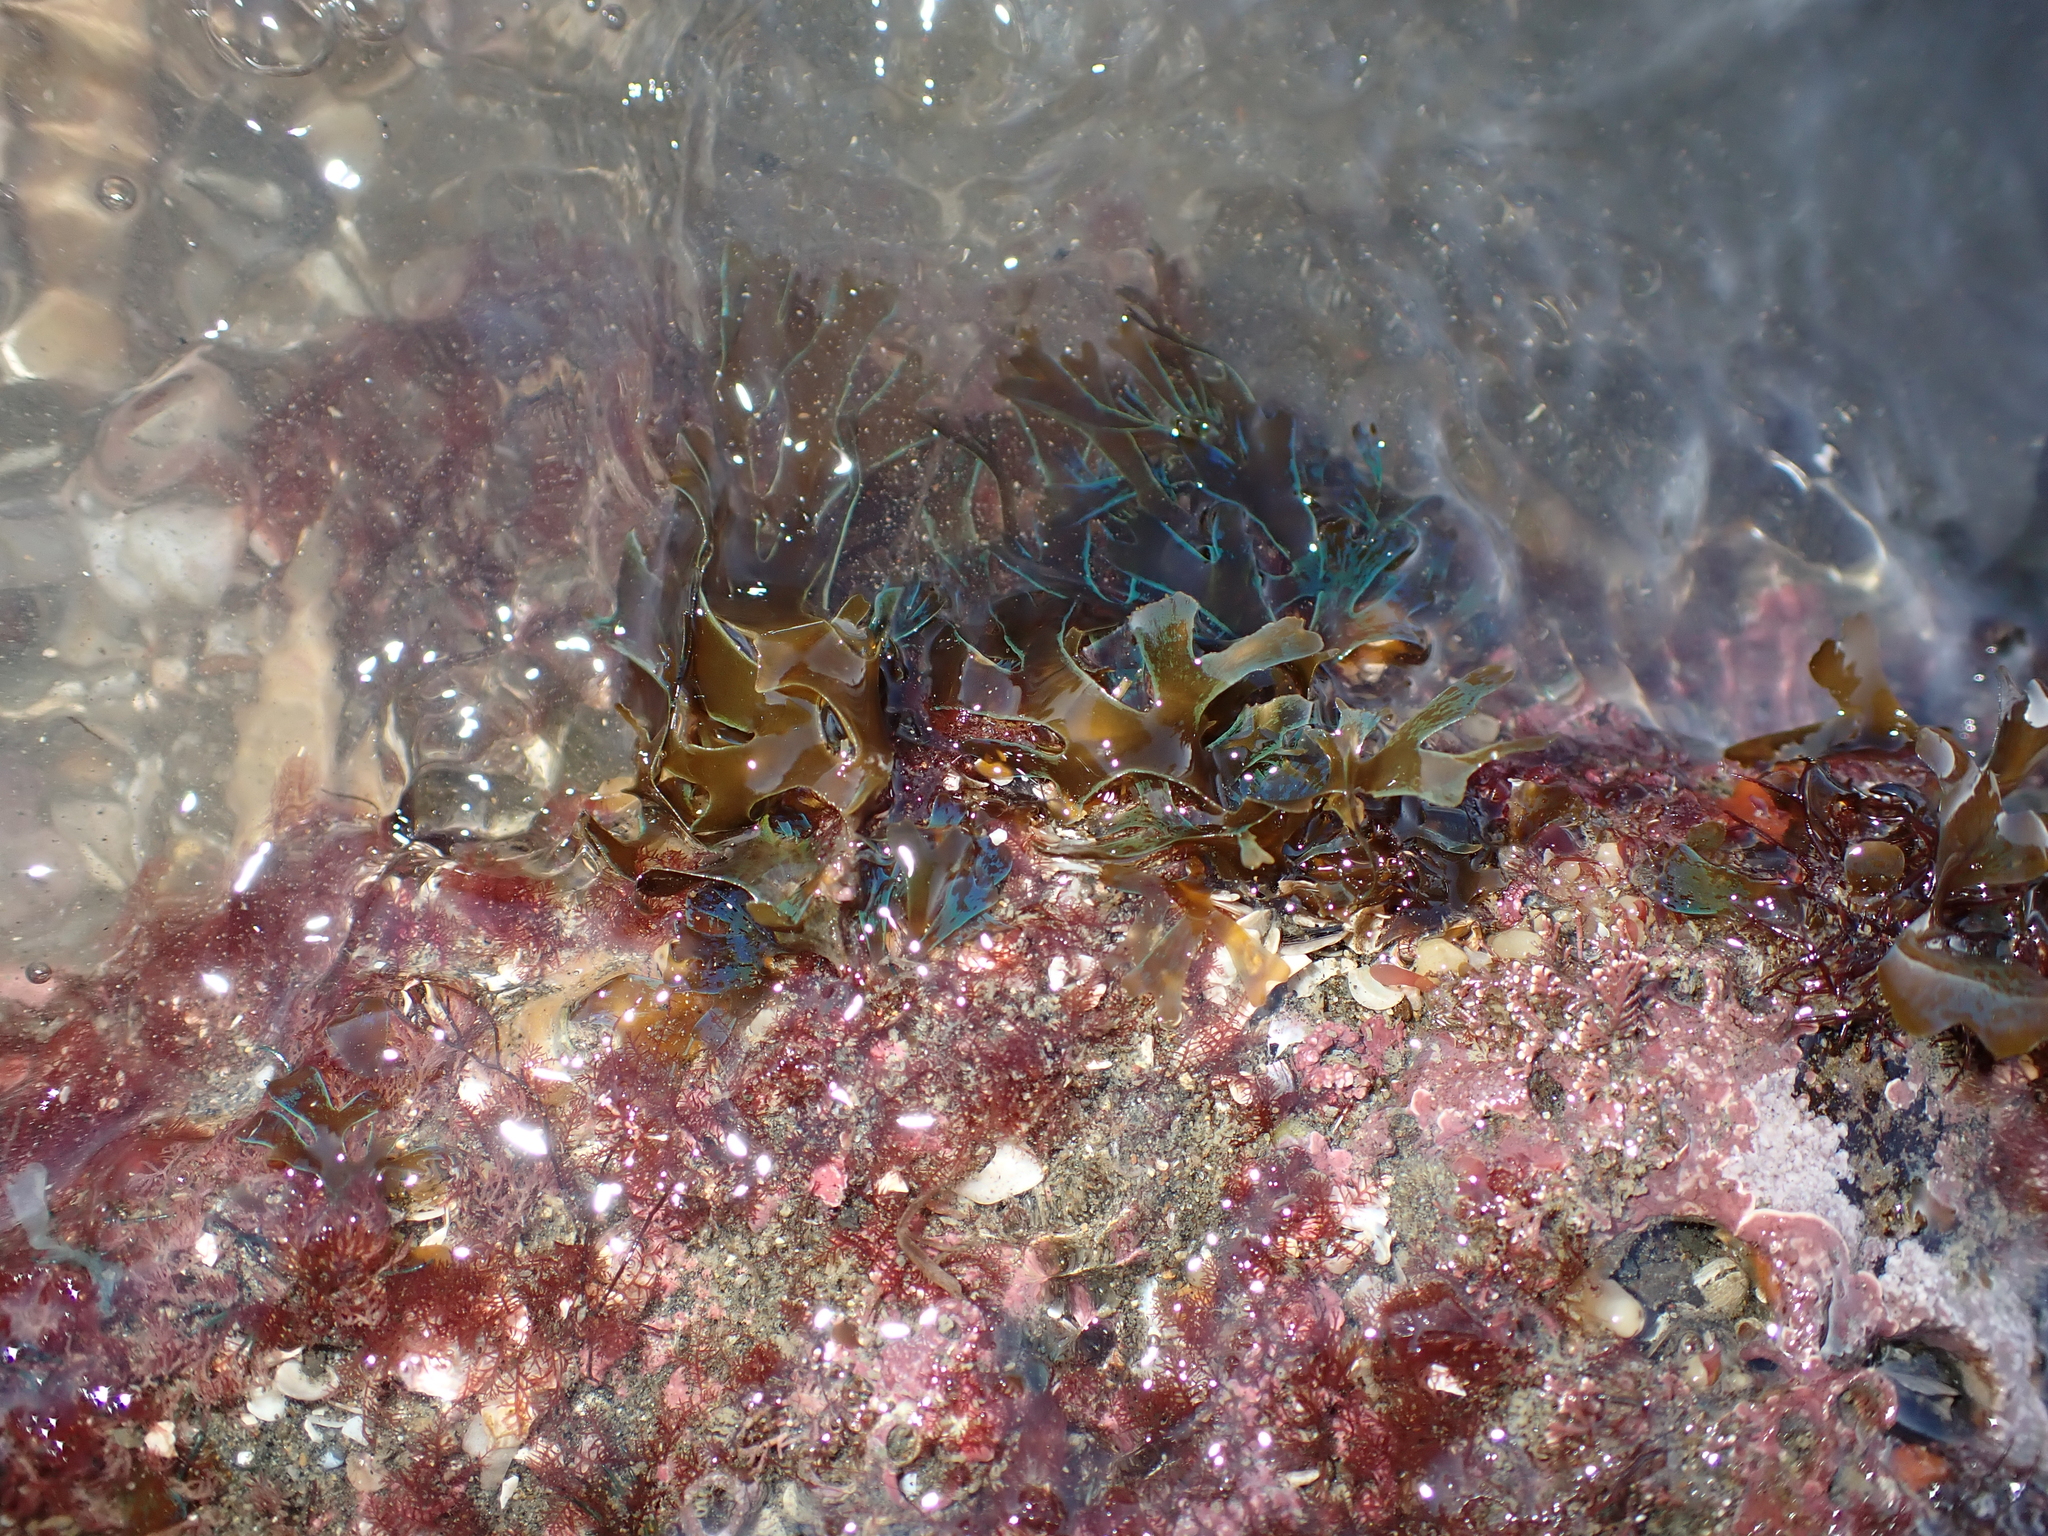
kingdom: Chromista
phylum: Ochrophyta
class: Phaeophyceae
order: Dictyotales
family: Dictyotaceae
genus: Dictyota
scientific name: Dictyota
